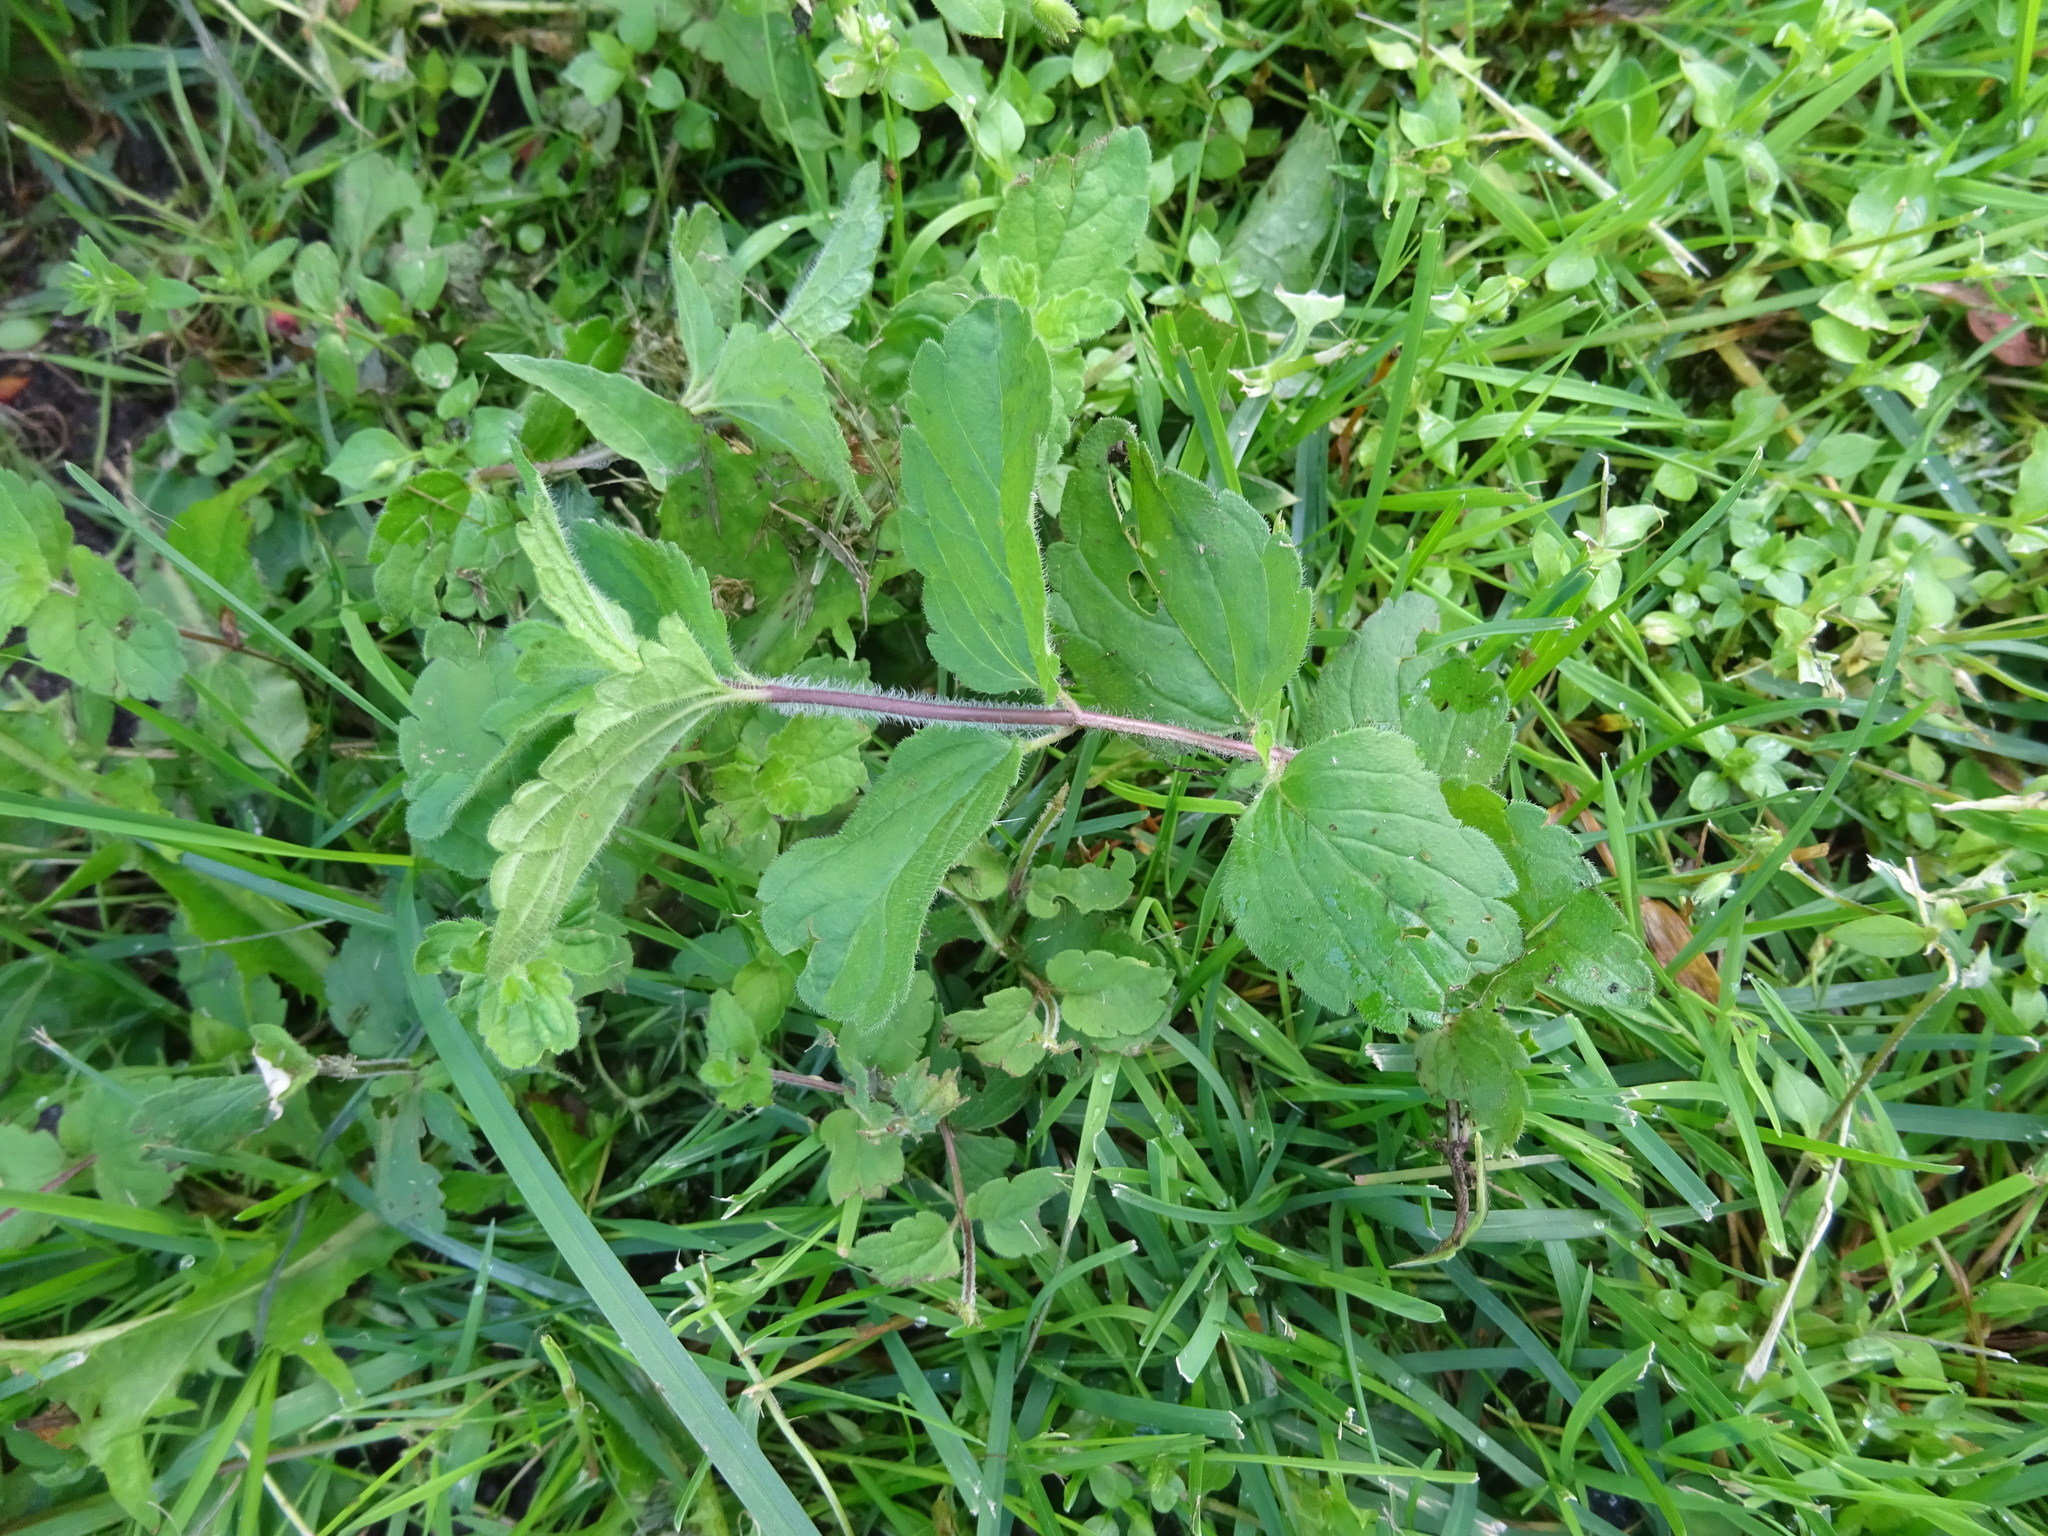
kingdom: Plantae
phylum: Tracheophyta
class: Magnoliopsida
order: Lamiales
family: Plantaginaceae
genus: Veronica
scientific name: Veronica chamaedrys
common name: Germander speedwell
